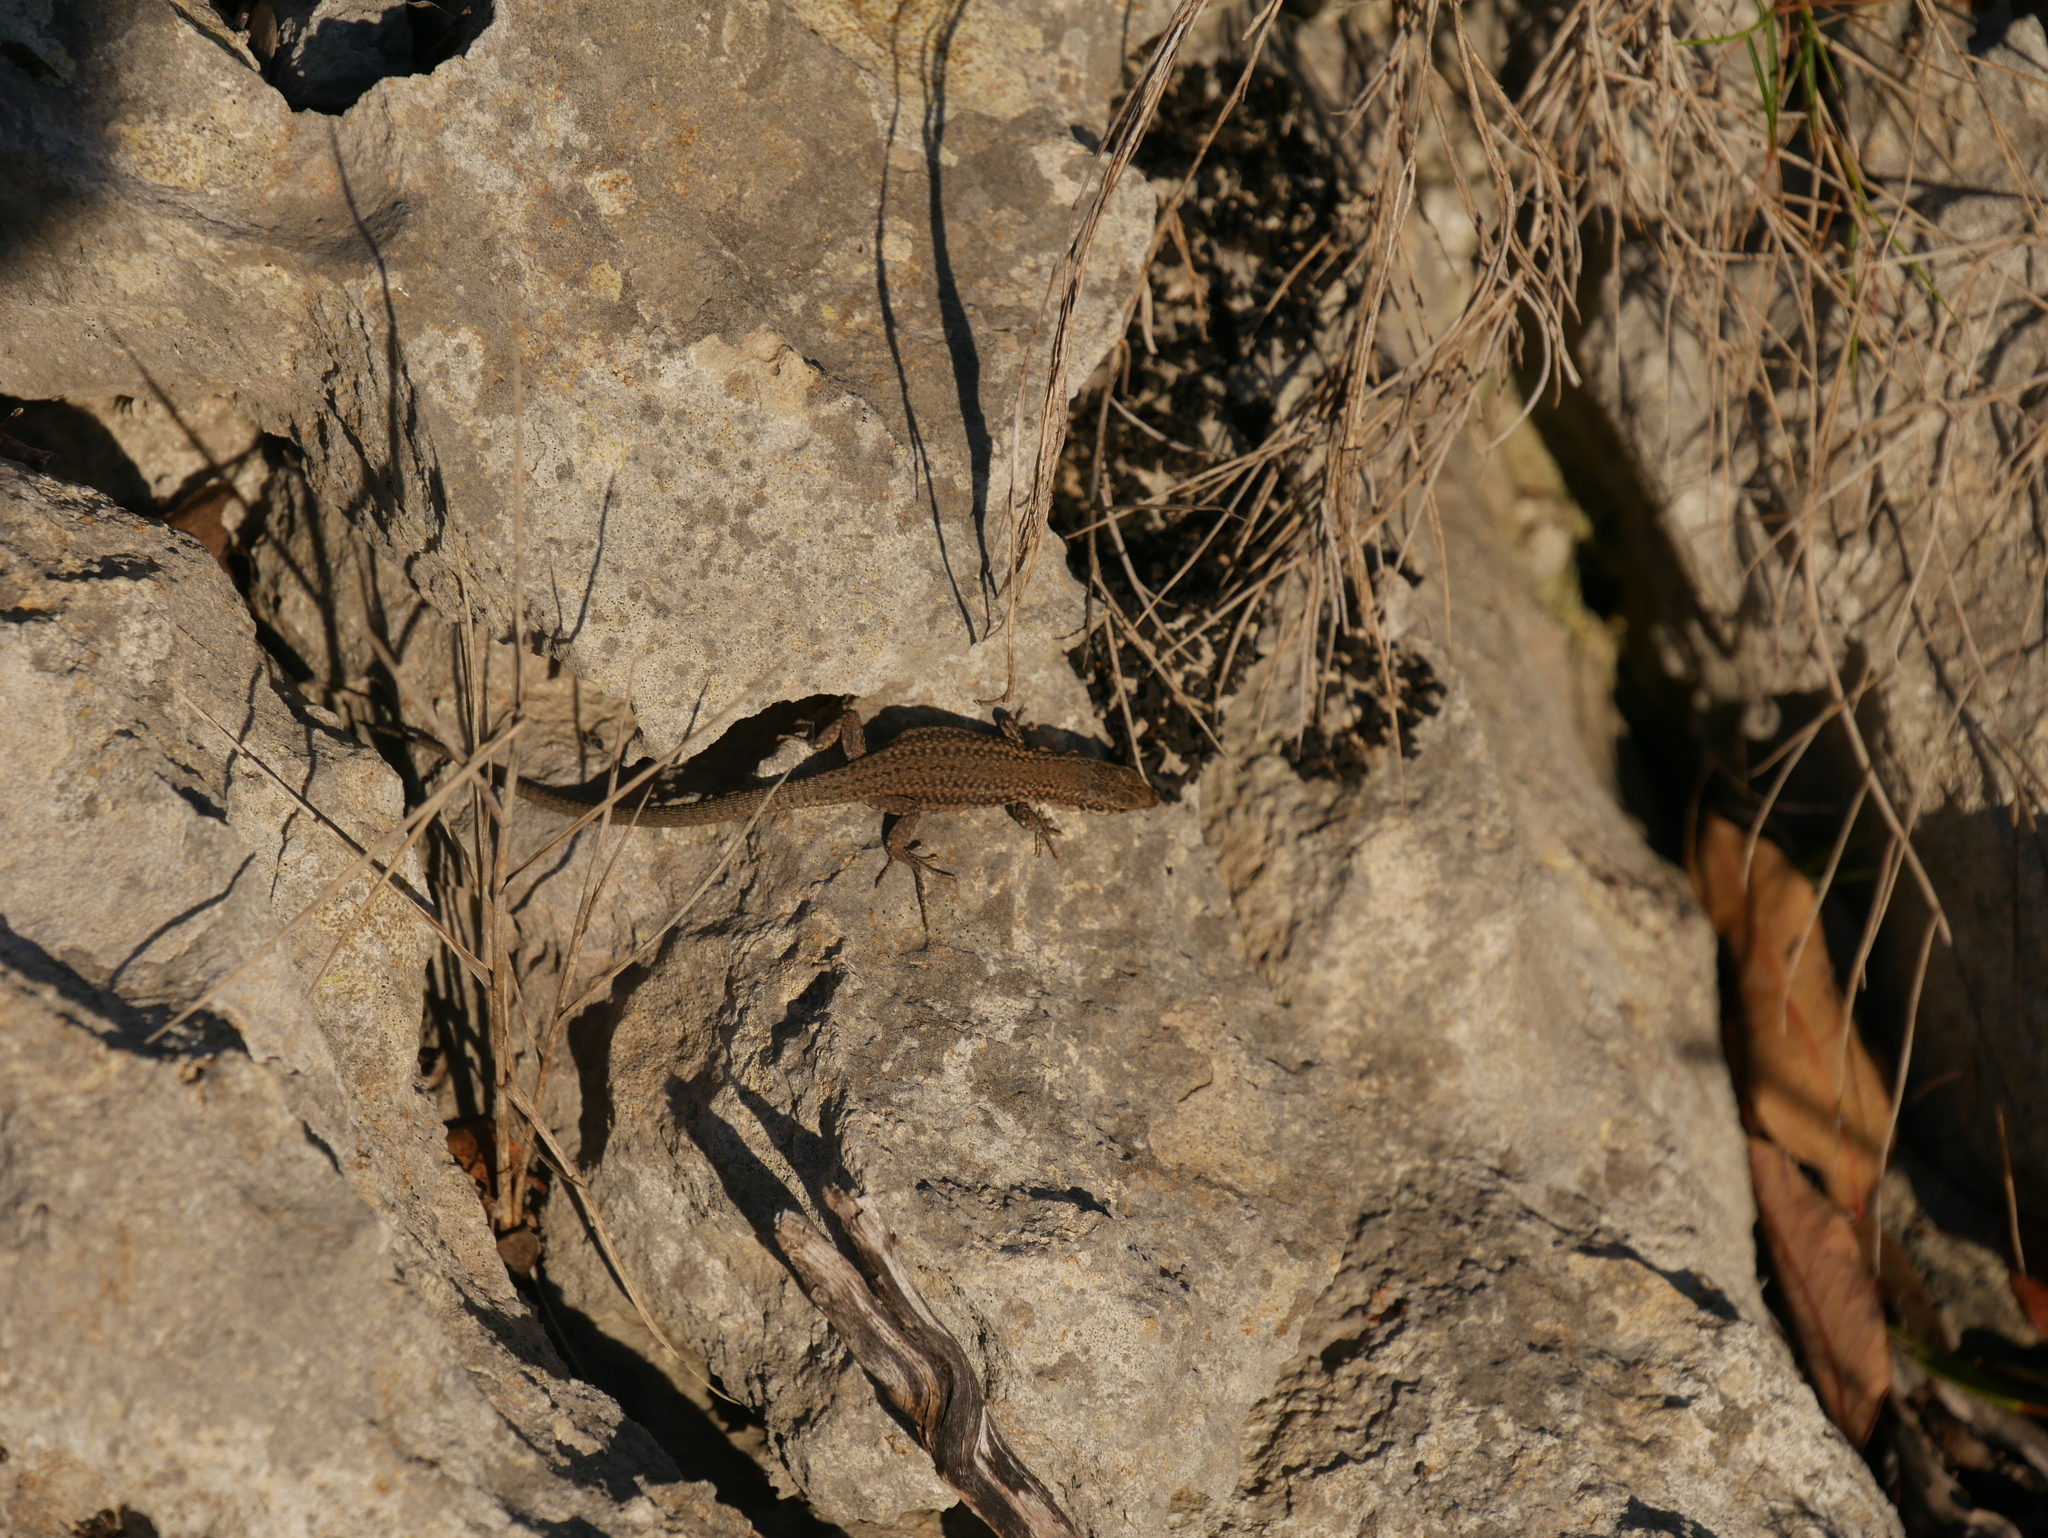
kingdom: Animalia
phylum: Chordata
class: Squamata
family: Lacertidae
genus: Podarcis
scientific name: Podarcis liolepis
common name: Catalonian wall lizard
